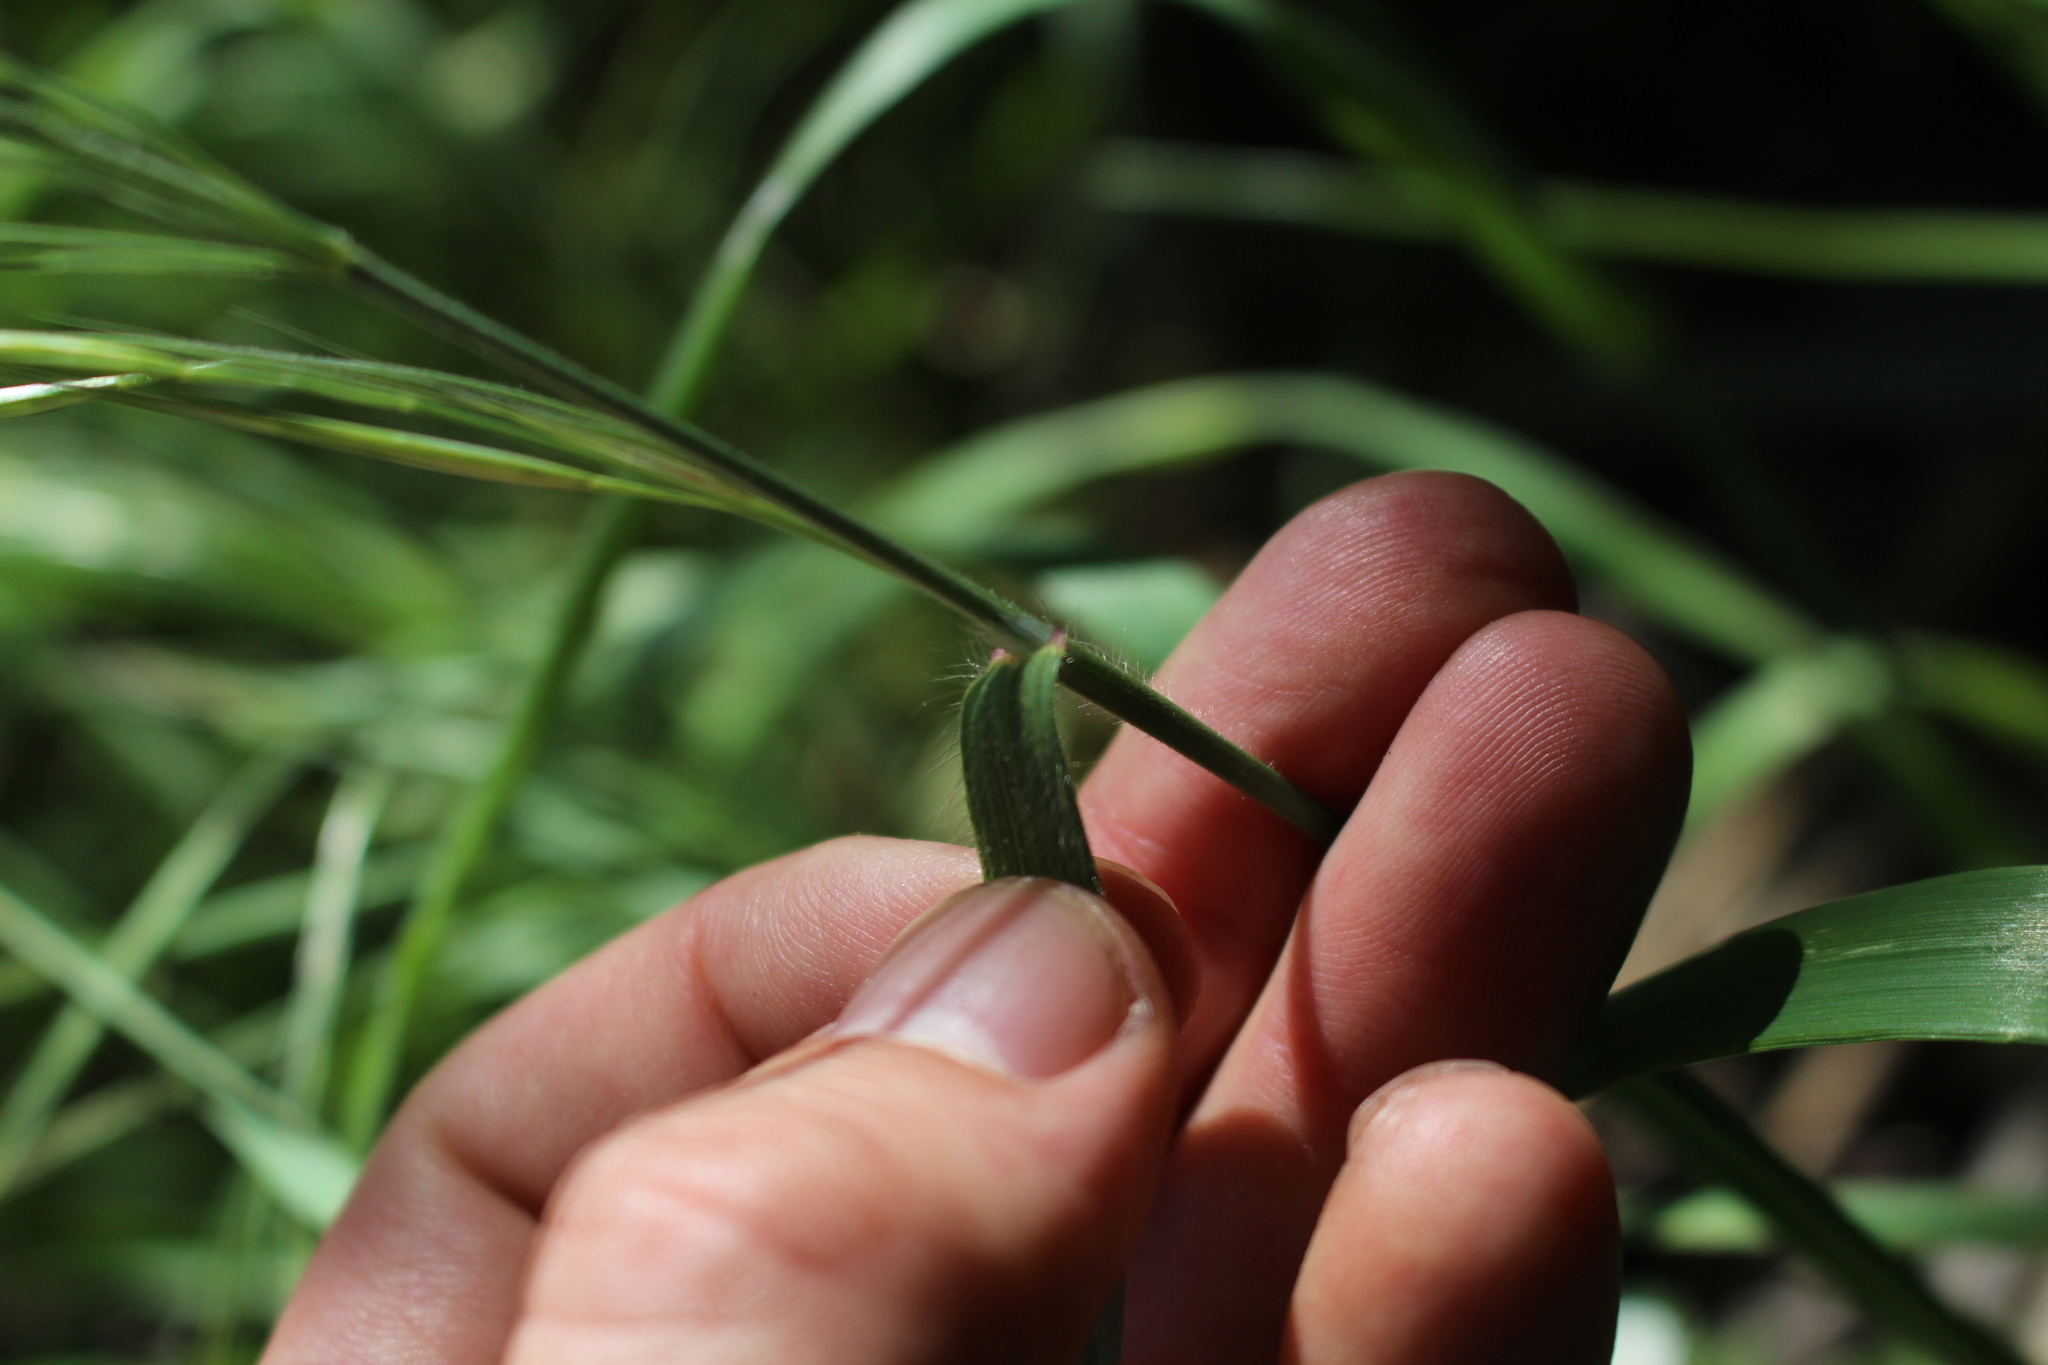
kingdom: Plantae
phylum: Tracheophyta
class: Liliopsida
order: Poales
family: Poaceae
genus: Bromus
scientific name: Bromus diandrus
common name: Ripgut brome
